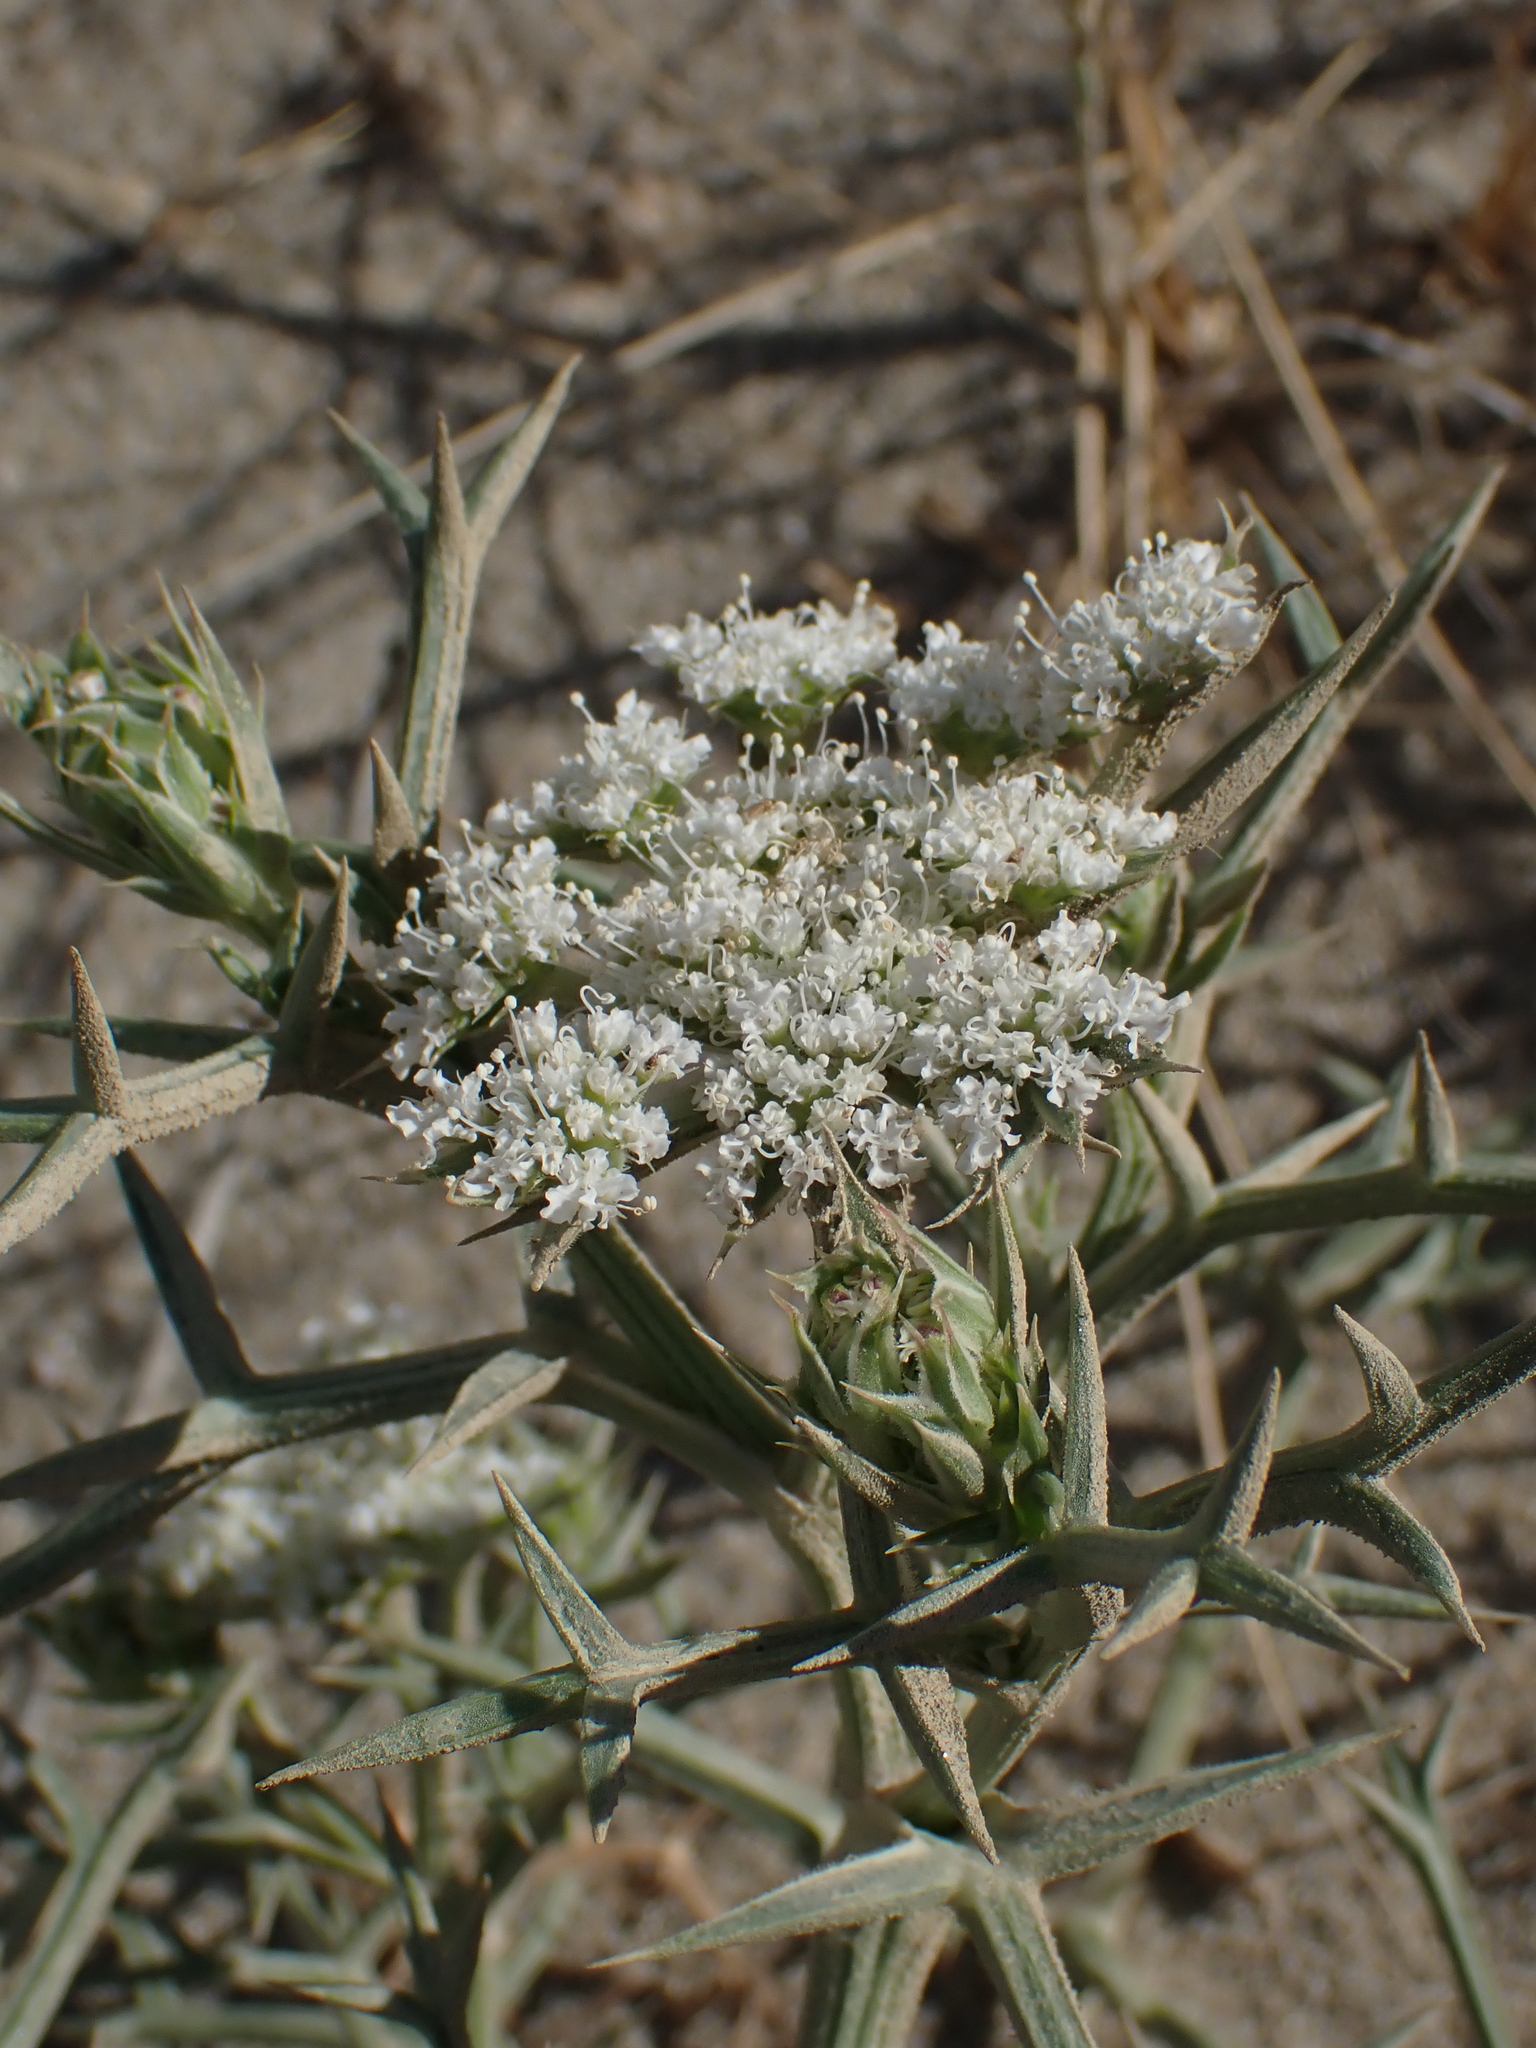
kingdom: Plantae
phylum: Tracheophyta
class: Magnoliopsida
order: Apiales
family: Apiaceae
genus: Echinophora
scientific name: Echinophora spinosa
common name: Prickly samphire
